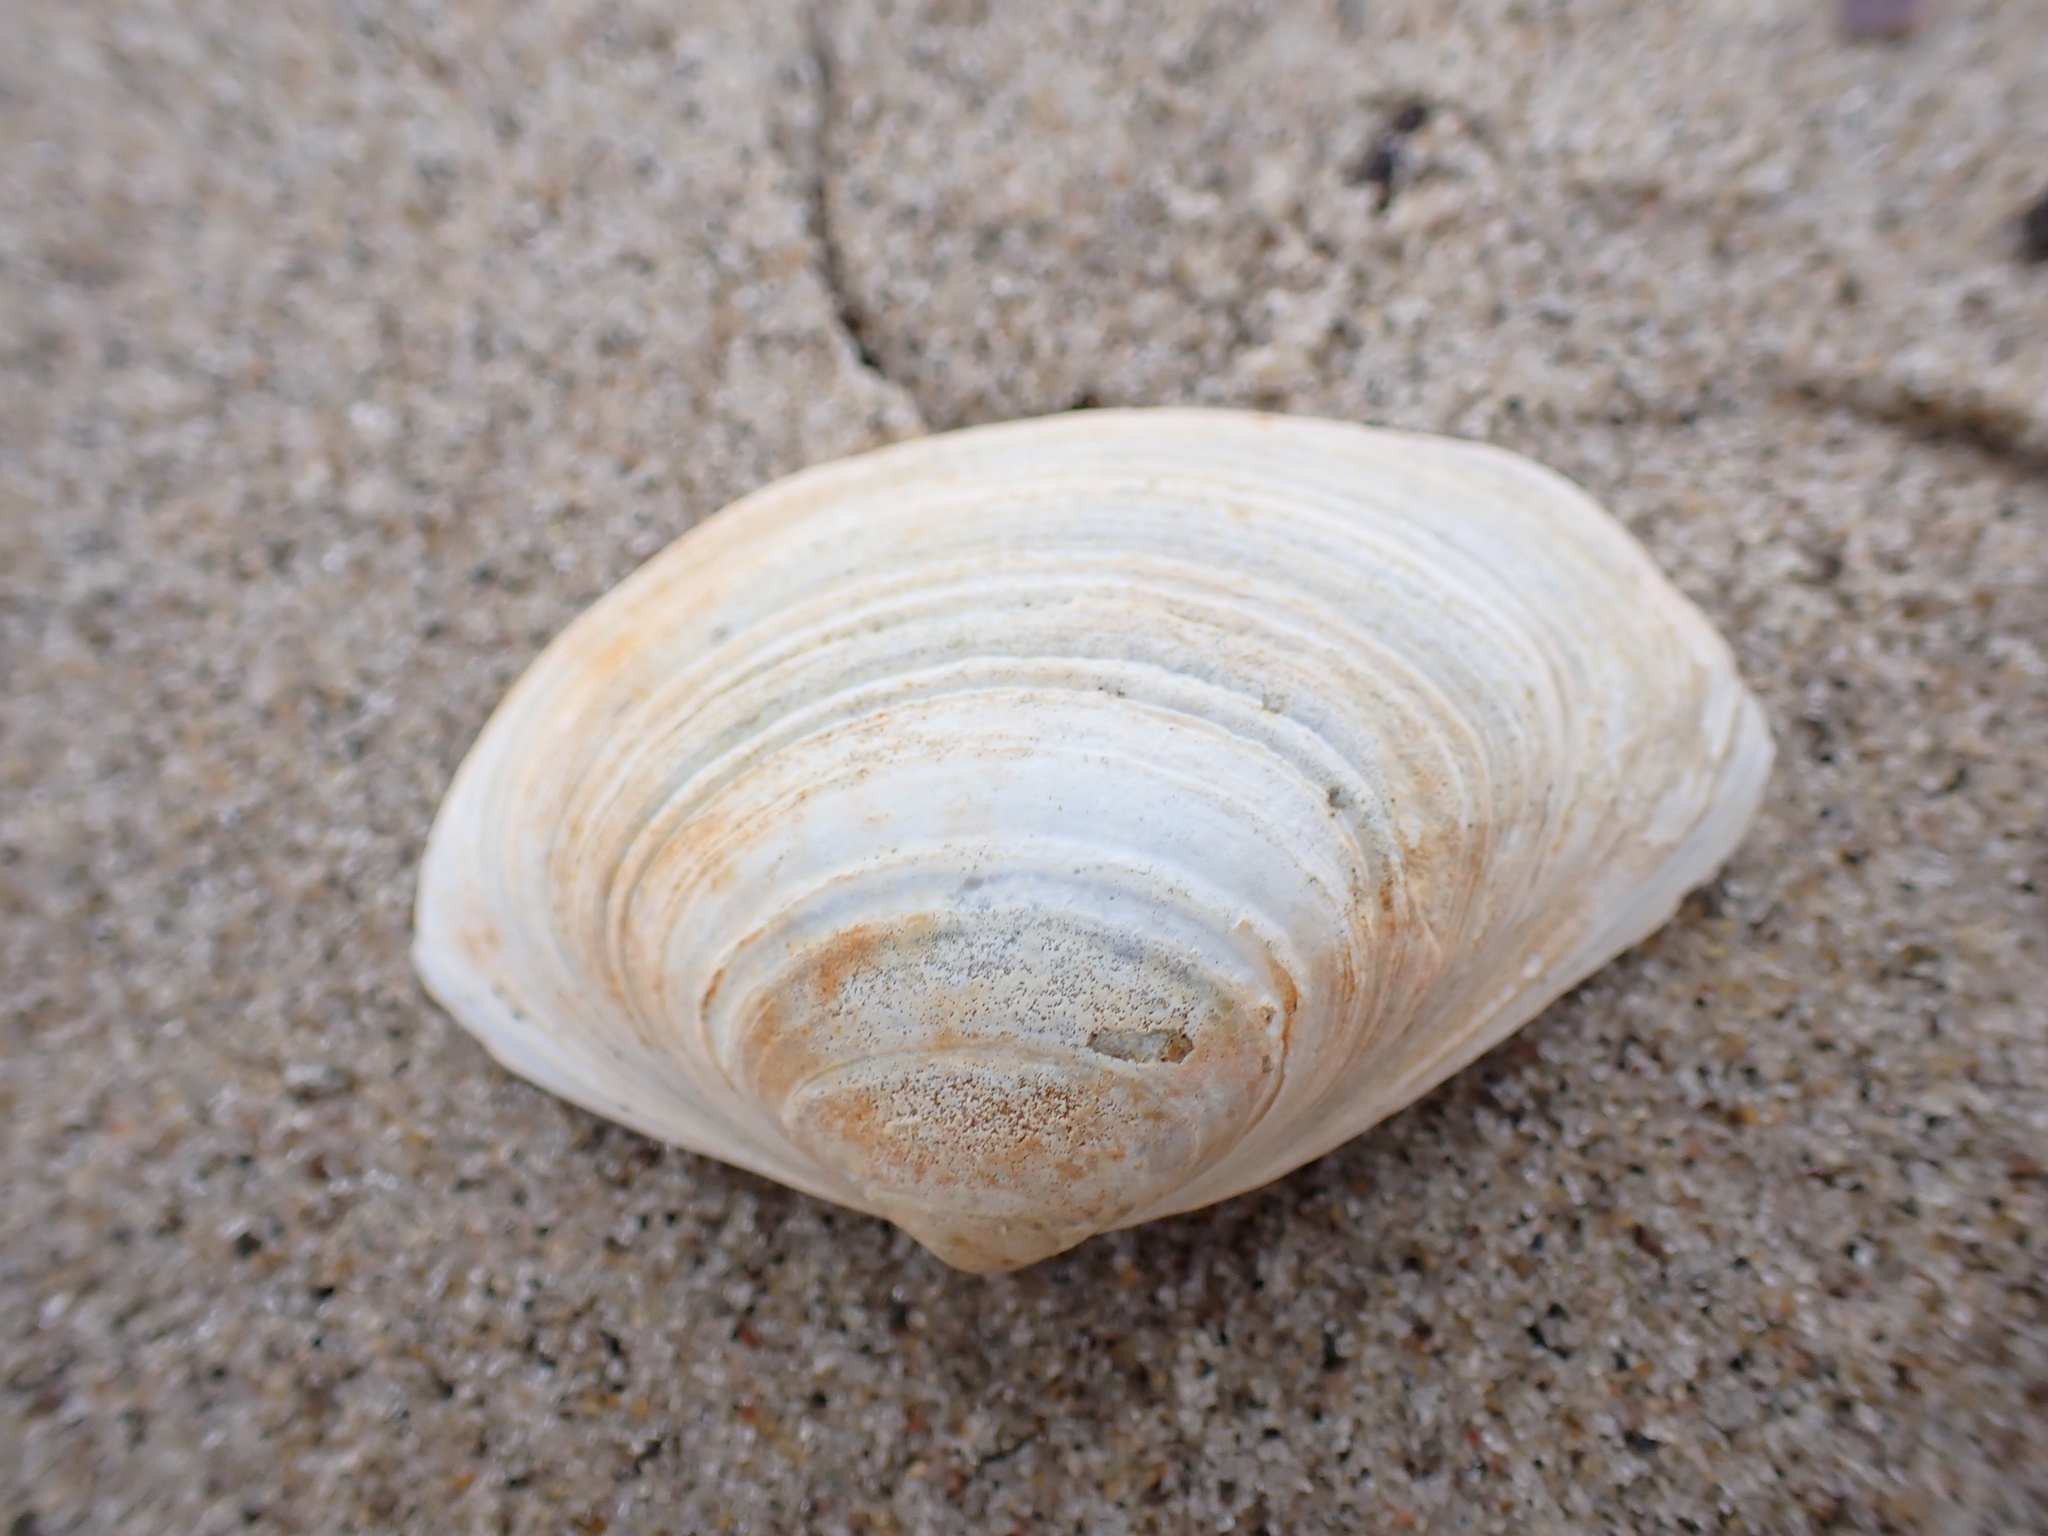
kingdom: Animalia
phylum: Mollusca
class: Bivalvia
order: Venerida
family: Mactridae
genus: Spisula
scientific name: Spisula solidissima
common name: Atlantic surf clam
